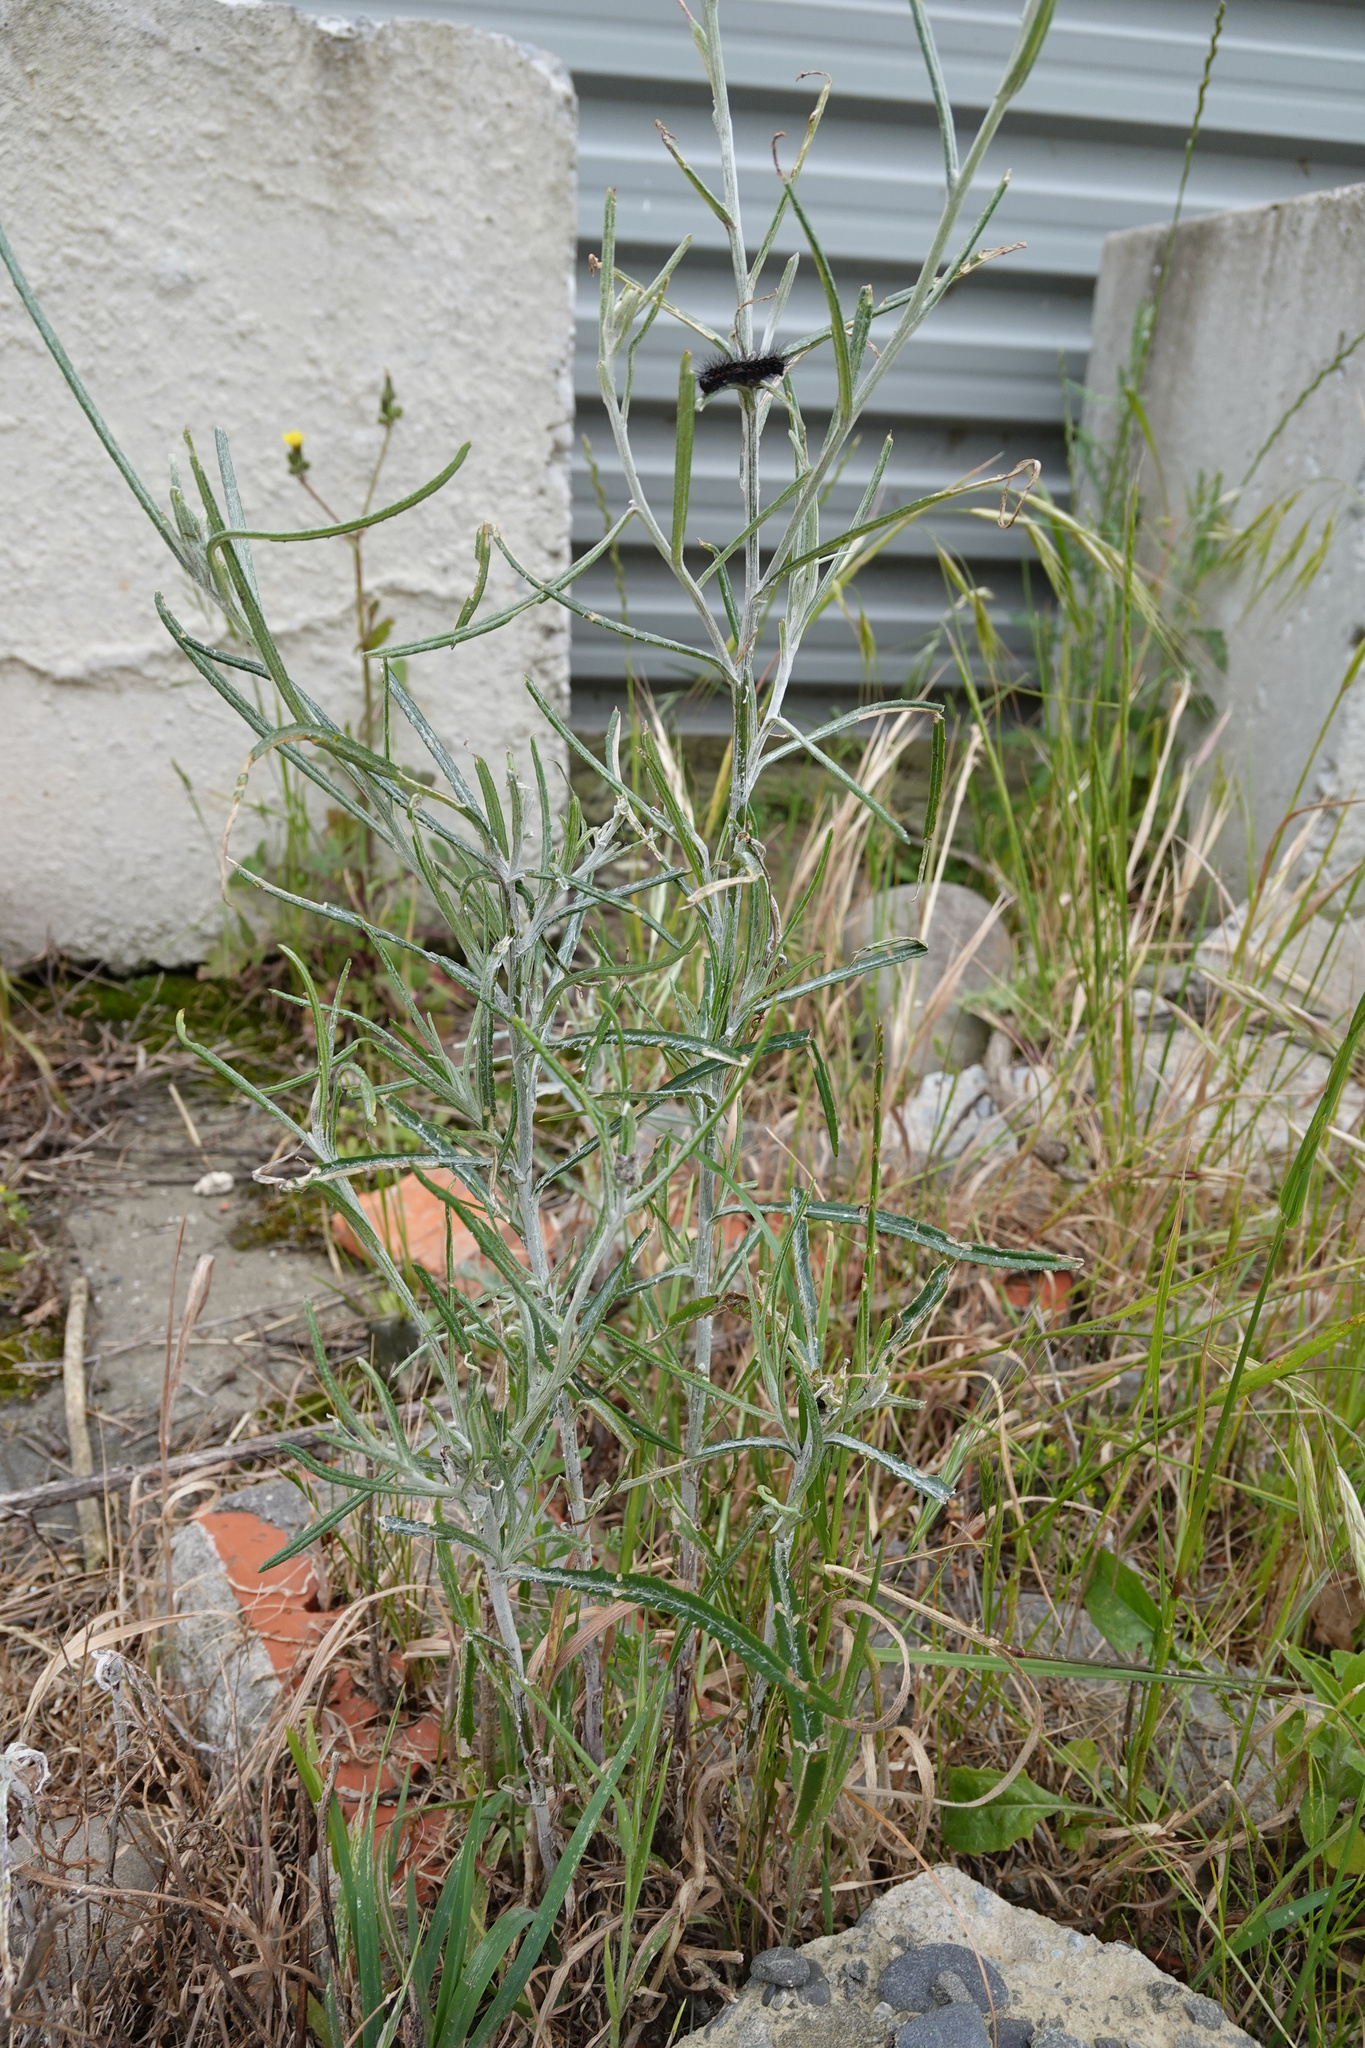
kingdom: Plantae
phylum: Tracheophyta
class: Magnoliopsida
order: Asterales
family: Asteraceae
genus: Senecio
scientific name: Senecio quadridentatus
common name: Cotton fireweed
